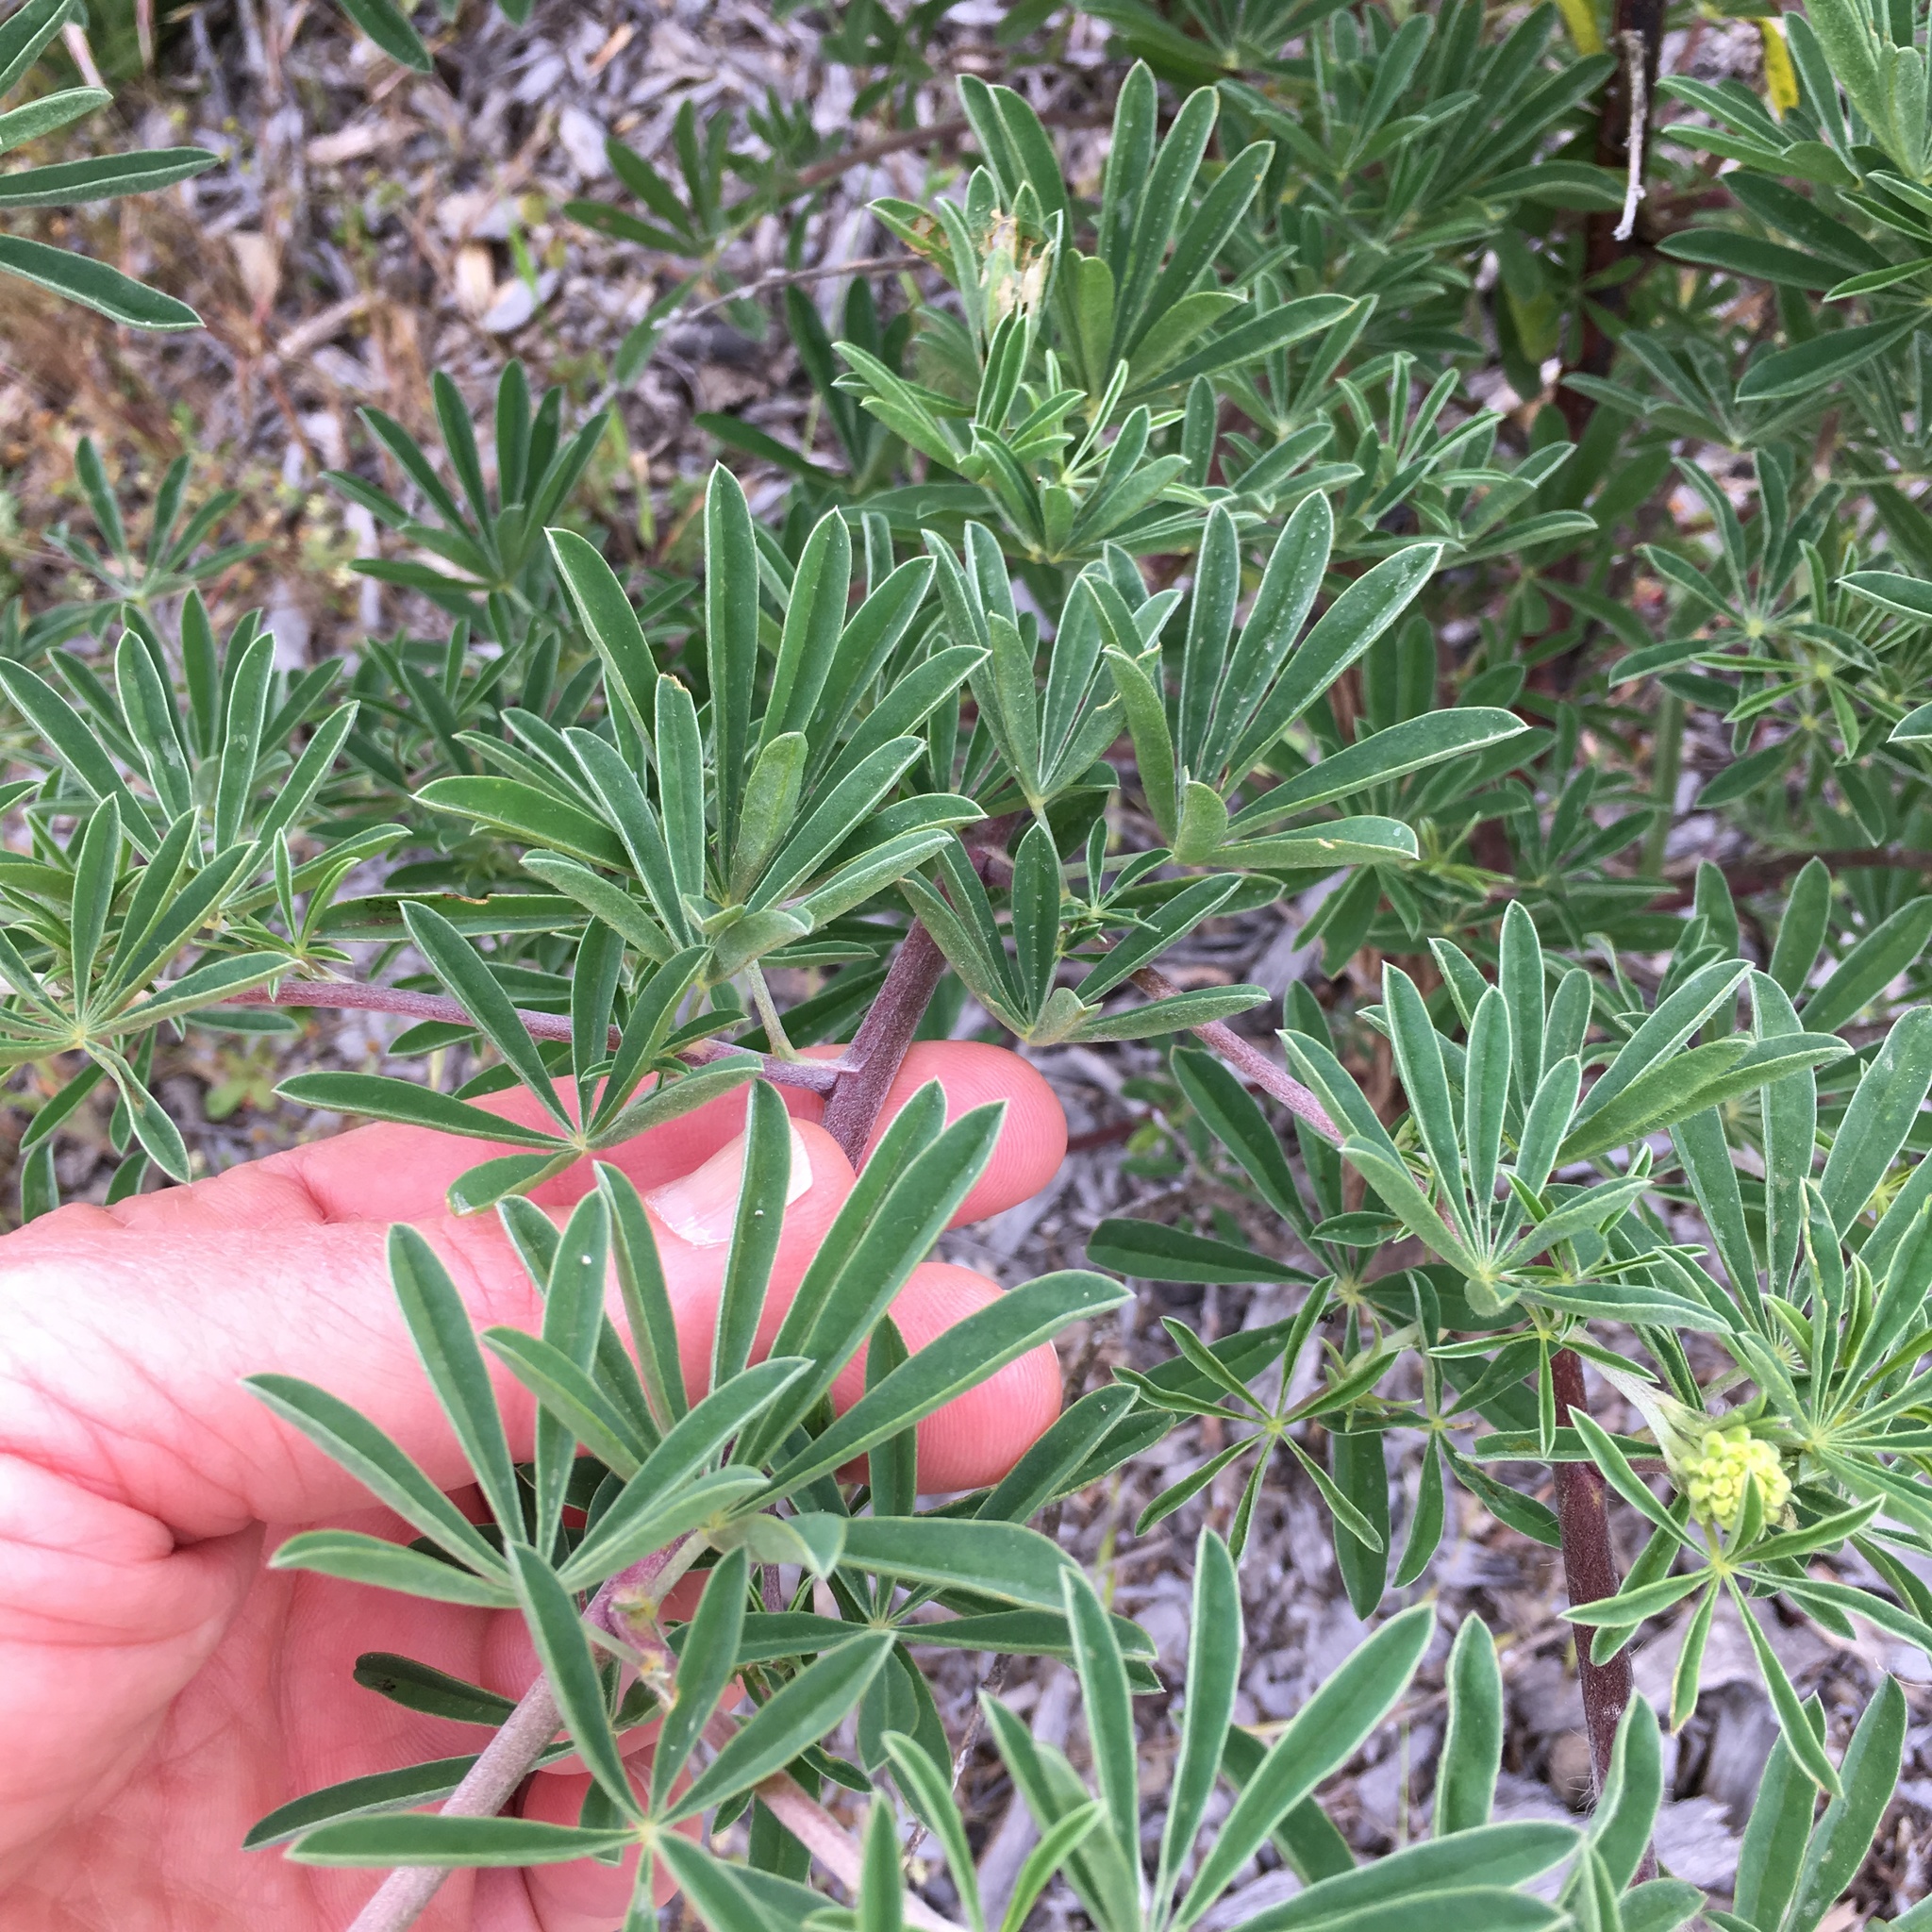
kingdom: Plantae
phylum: Tracheophyta
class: Magnoliopsida
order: Fabales
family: Fabaceae
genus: Lupinus
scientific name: Lupinus arboreus
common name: Yellow bush lupine
